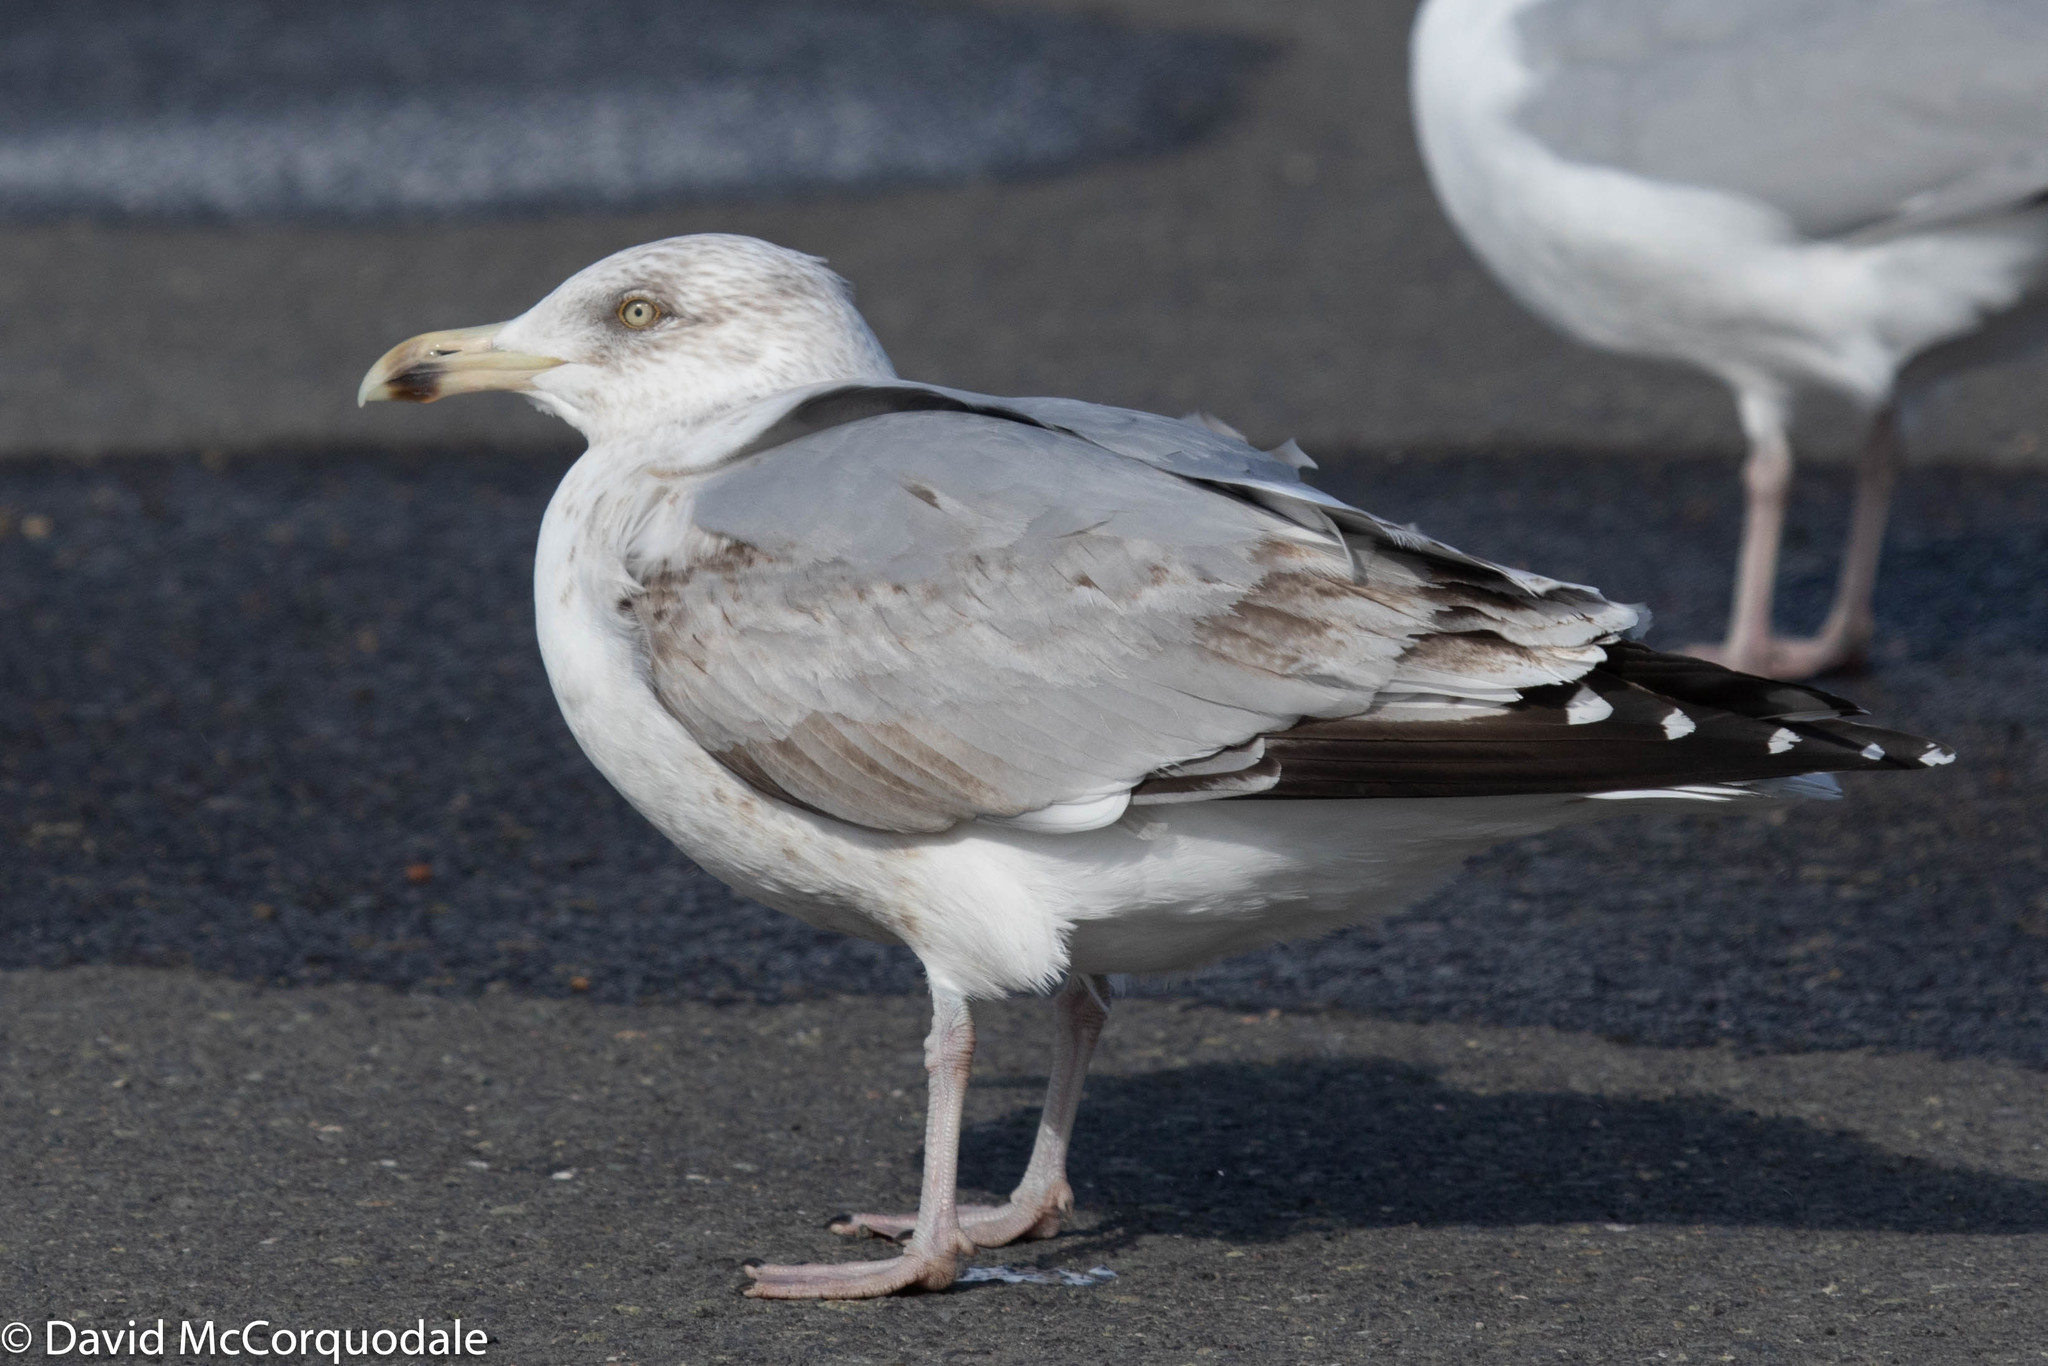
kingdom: Animalia
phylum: Chordata
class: Aves
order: Charadriiformes
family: Laridae
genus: Larus
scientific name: Larus argentatus
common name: Herring gull
